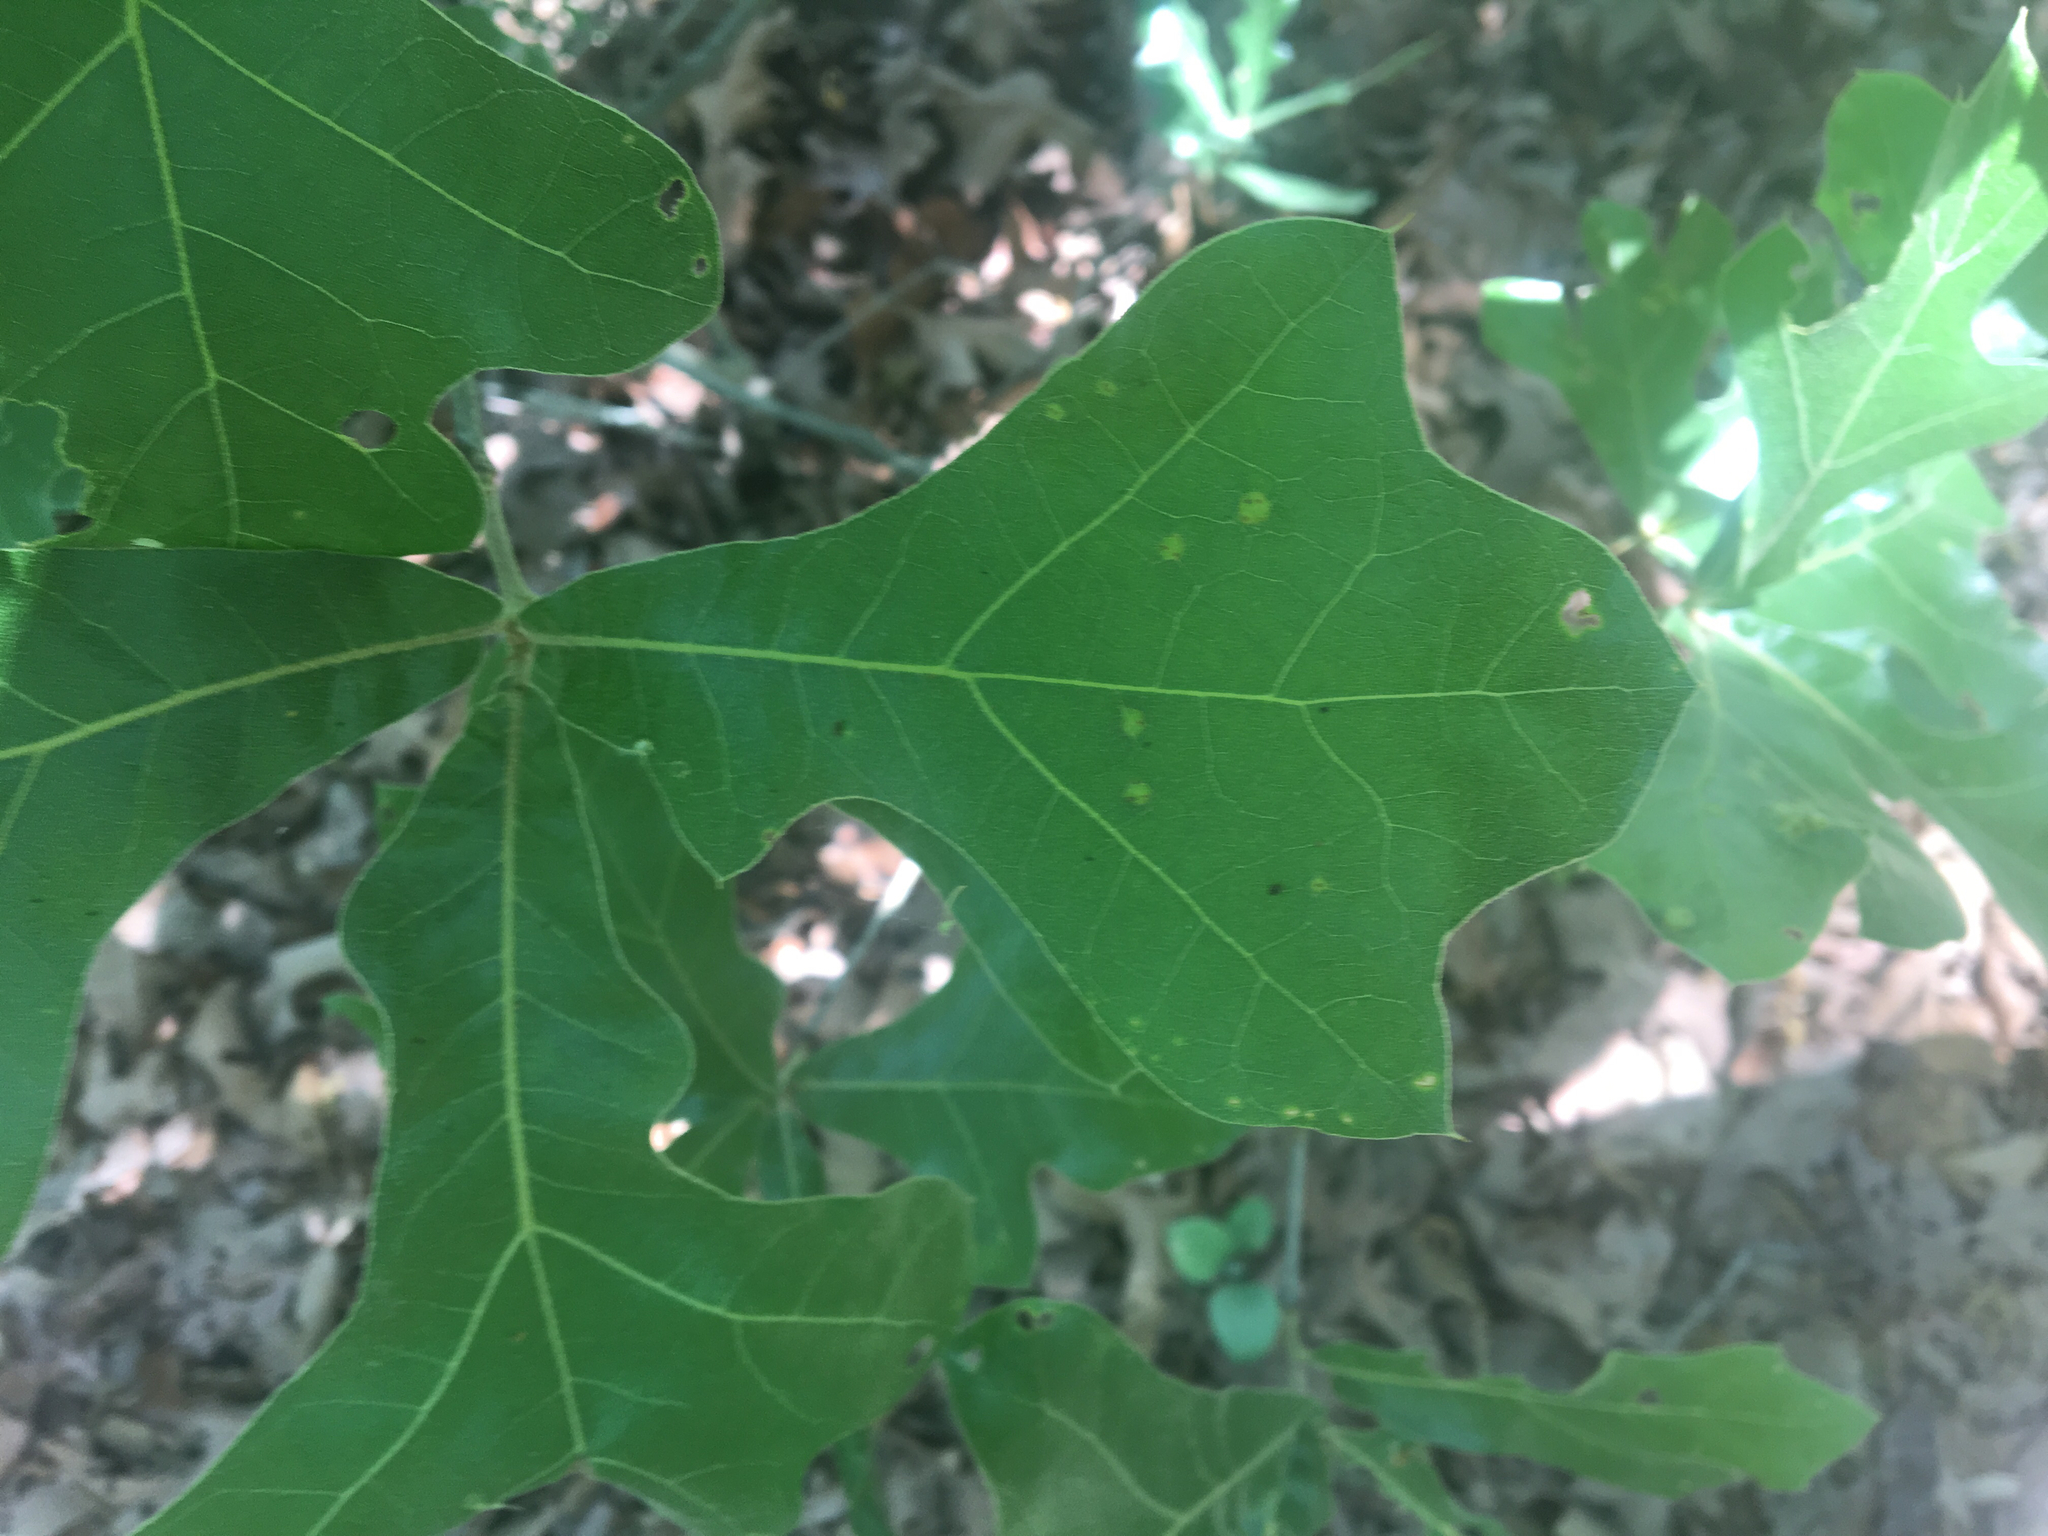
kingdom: Plantae
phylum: Tracheophyta
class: Magnoliopsida
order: Fagales
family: Fagaceae
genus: Quercus
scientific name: Quercus marilandica
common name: Blackjack oak
